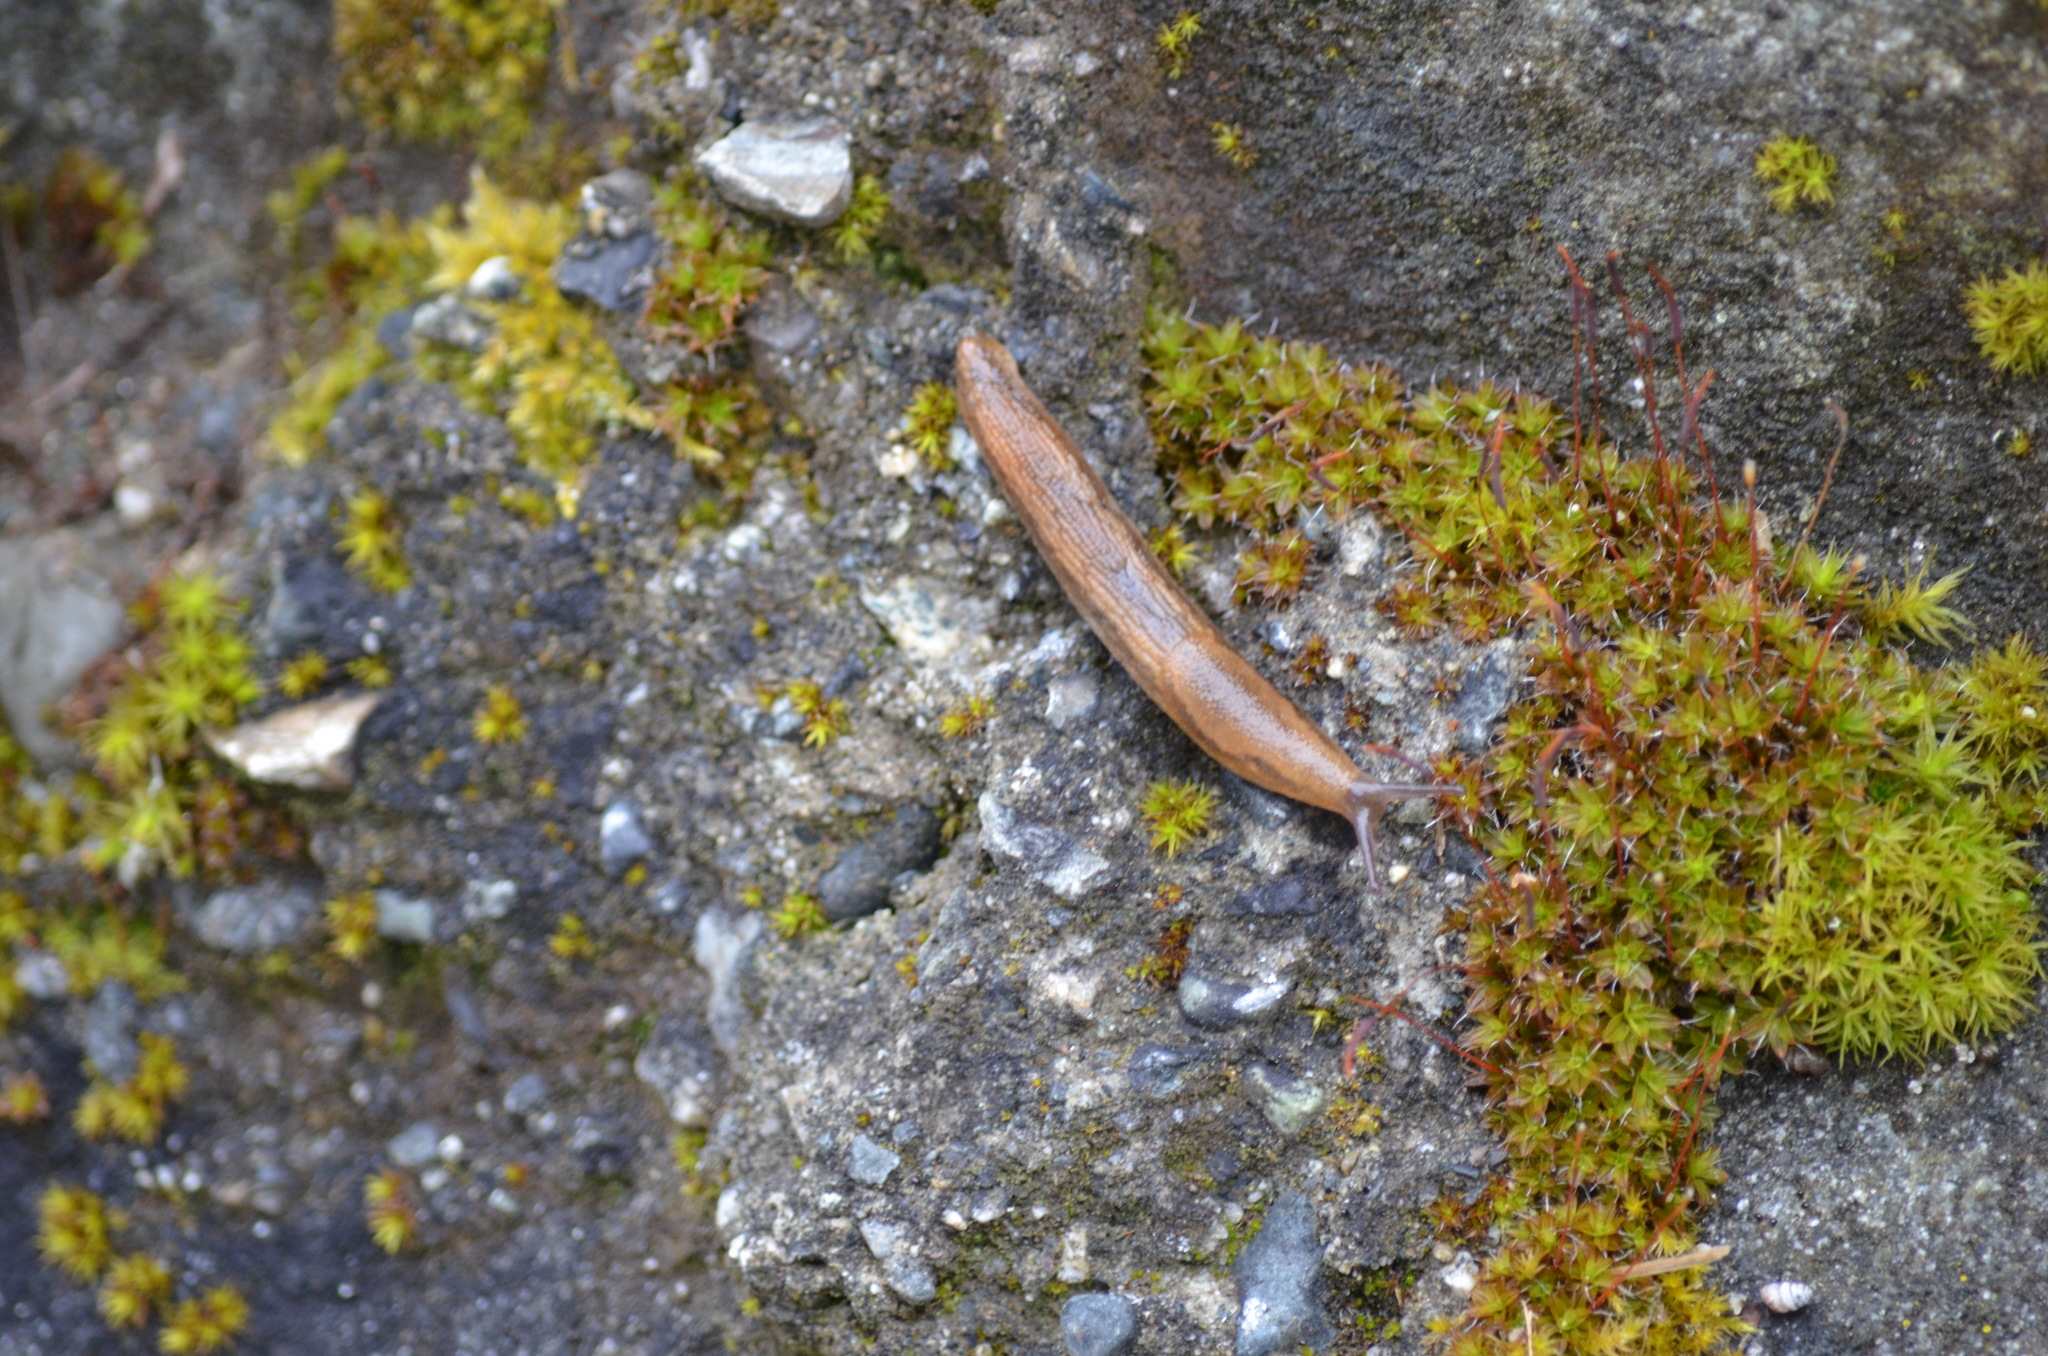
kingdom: Animalia
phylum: Mollusca
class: Gastropoda
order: Stylommatophora
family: Arionidae
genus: Arion
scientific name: Arion subfuscus
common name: Dusky arion
